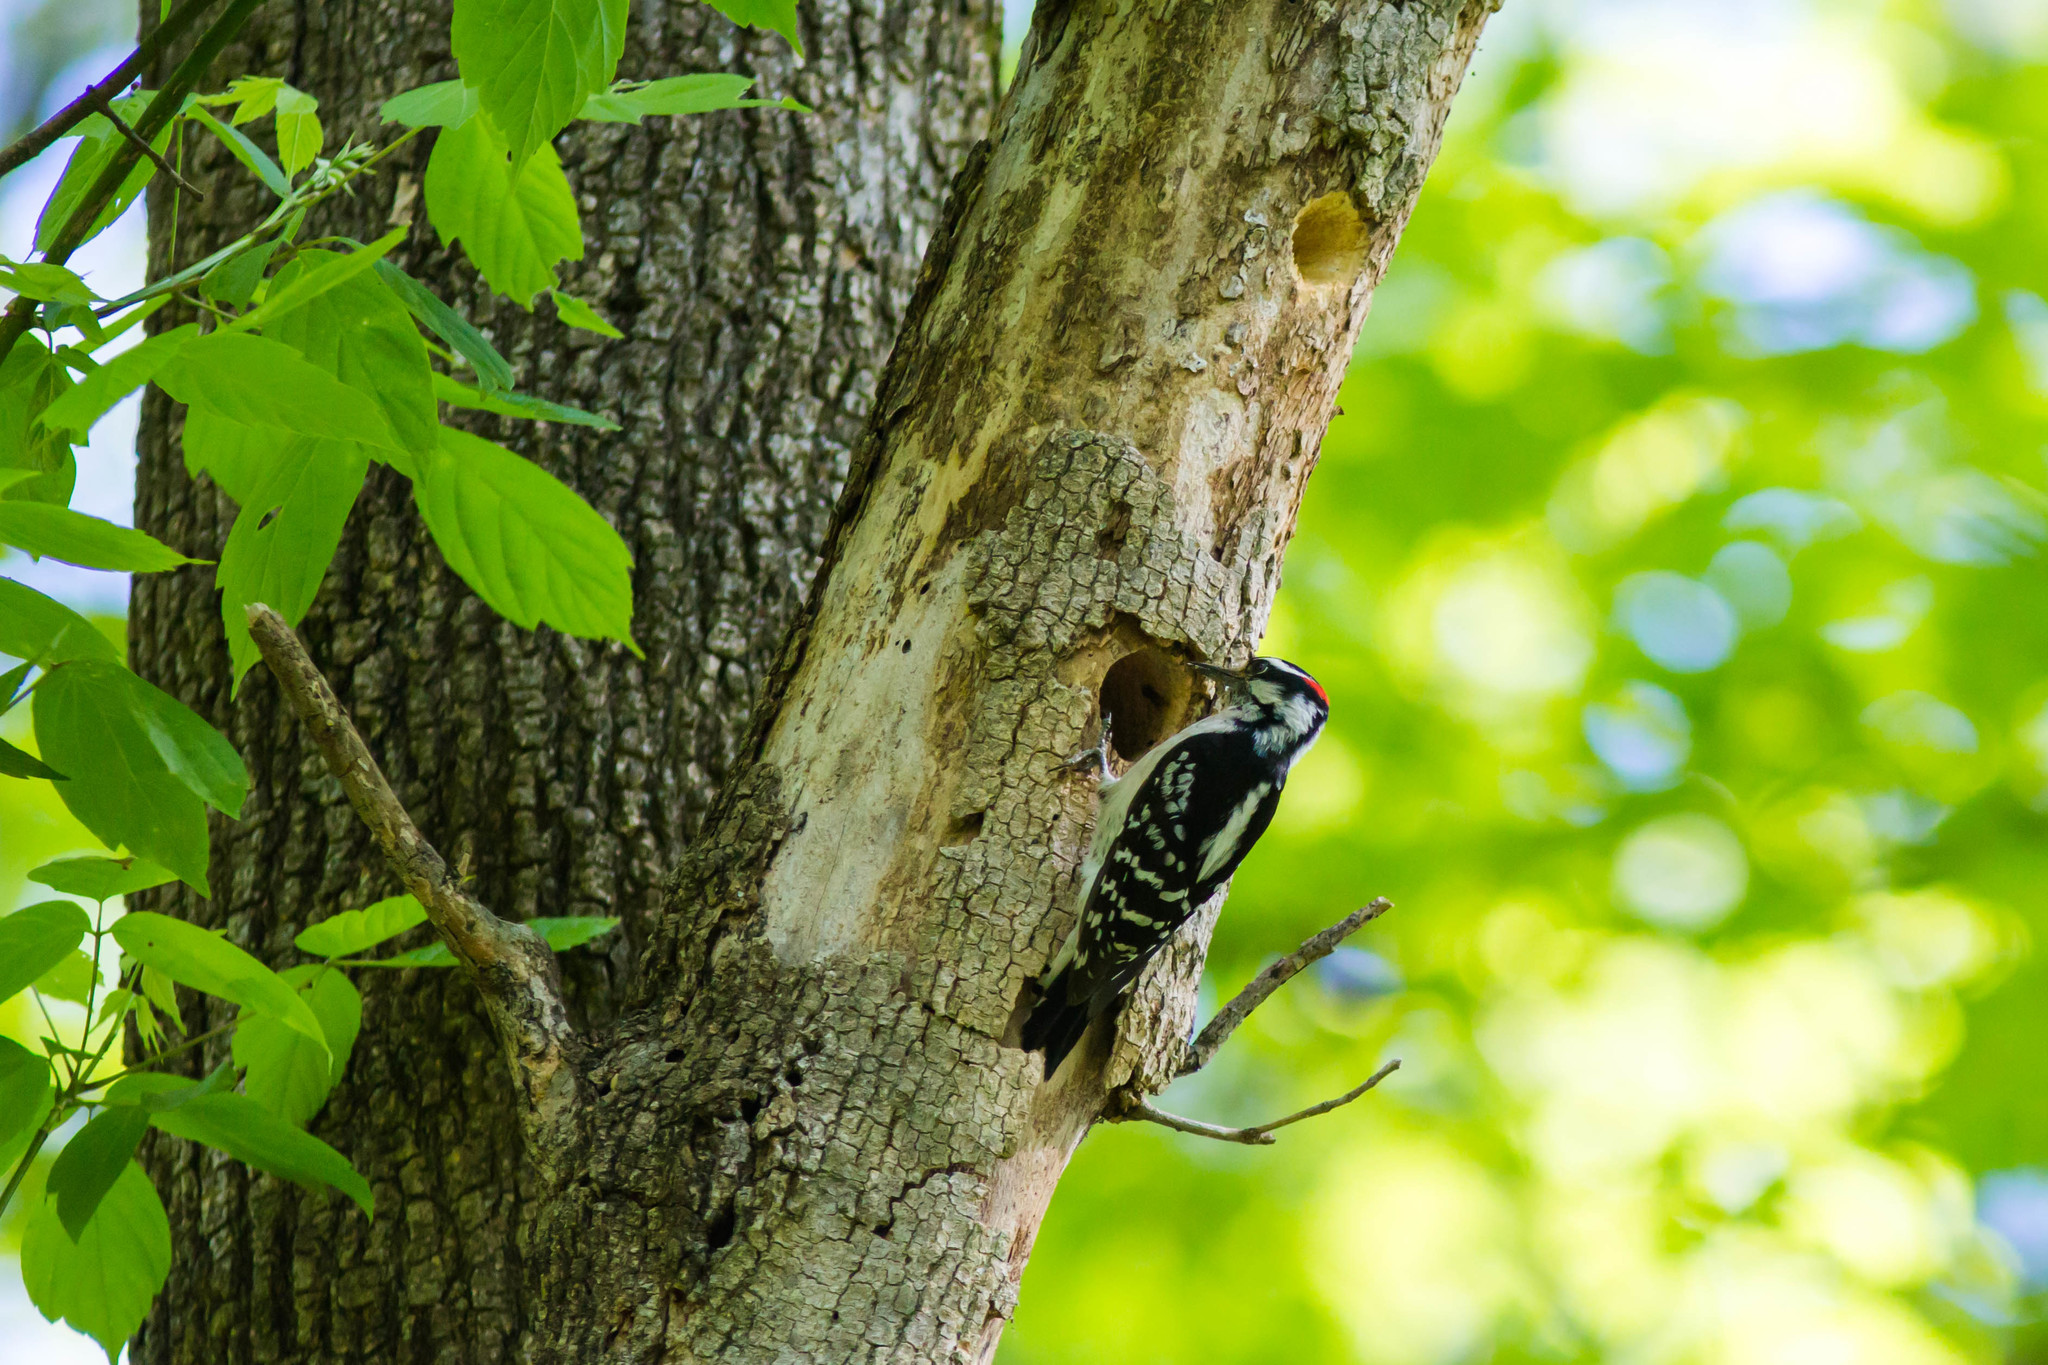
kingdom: Animalia
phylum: Chordata
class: Aves
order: Piciformes
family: Picidae
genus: Leuconotopicus
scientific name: Leuconotopicus villosus
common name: Hairy woodpecker
